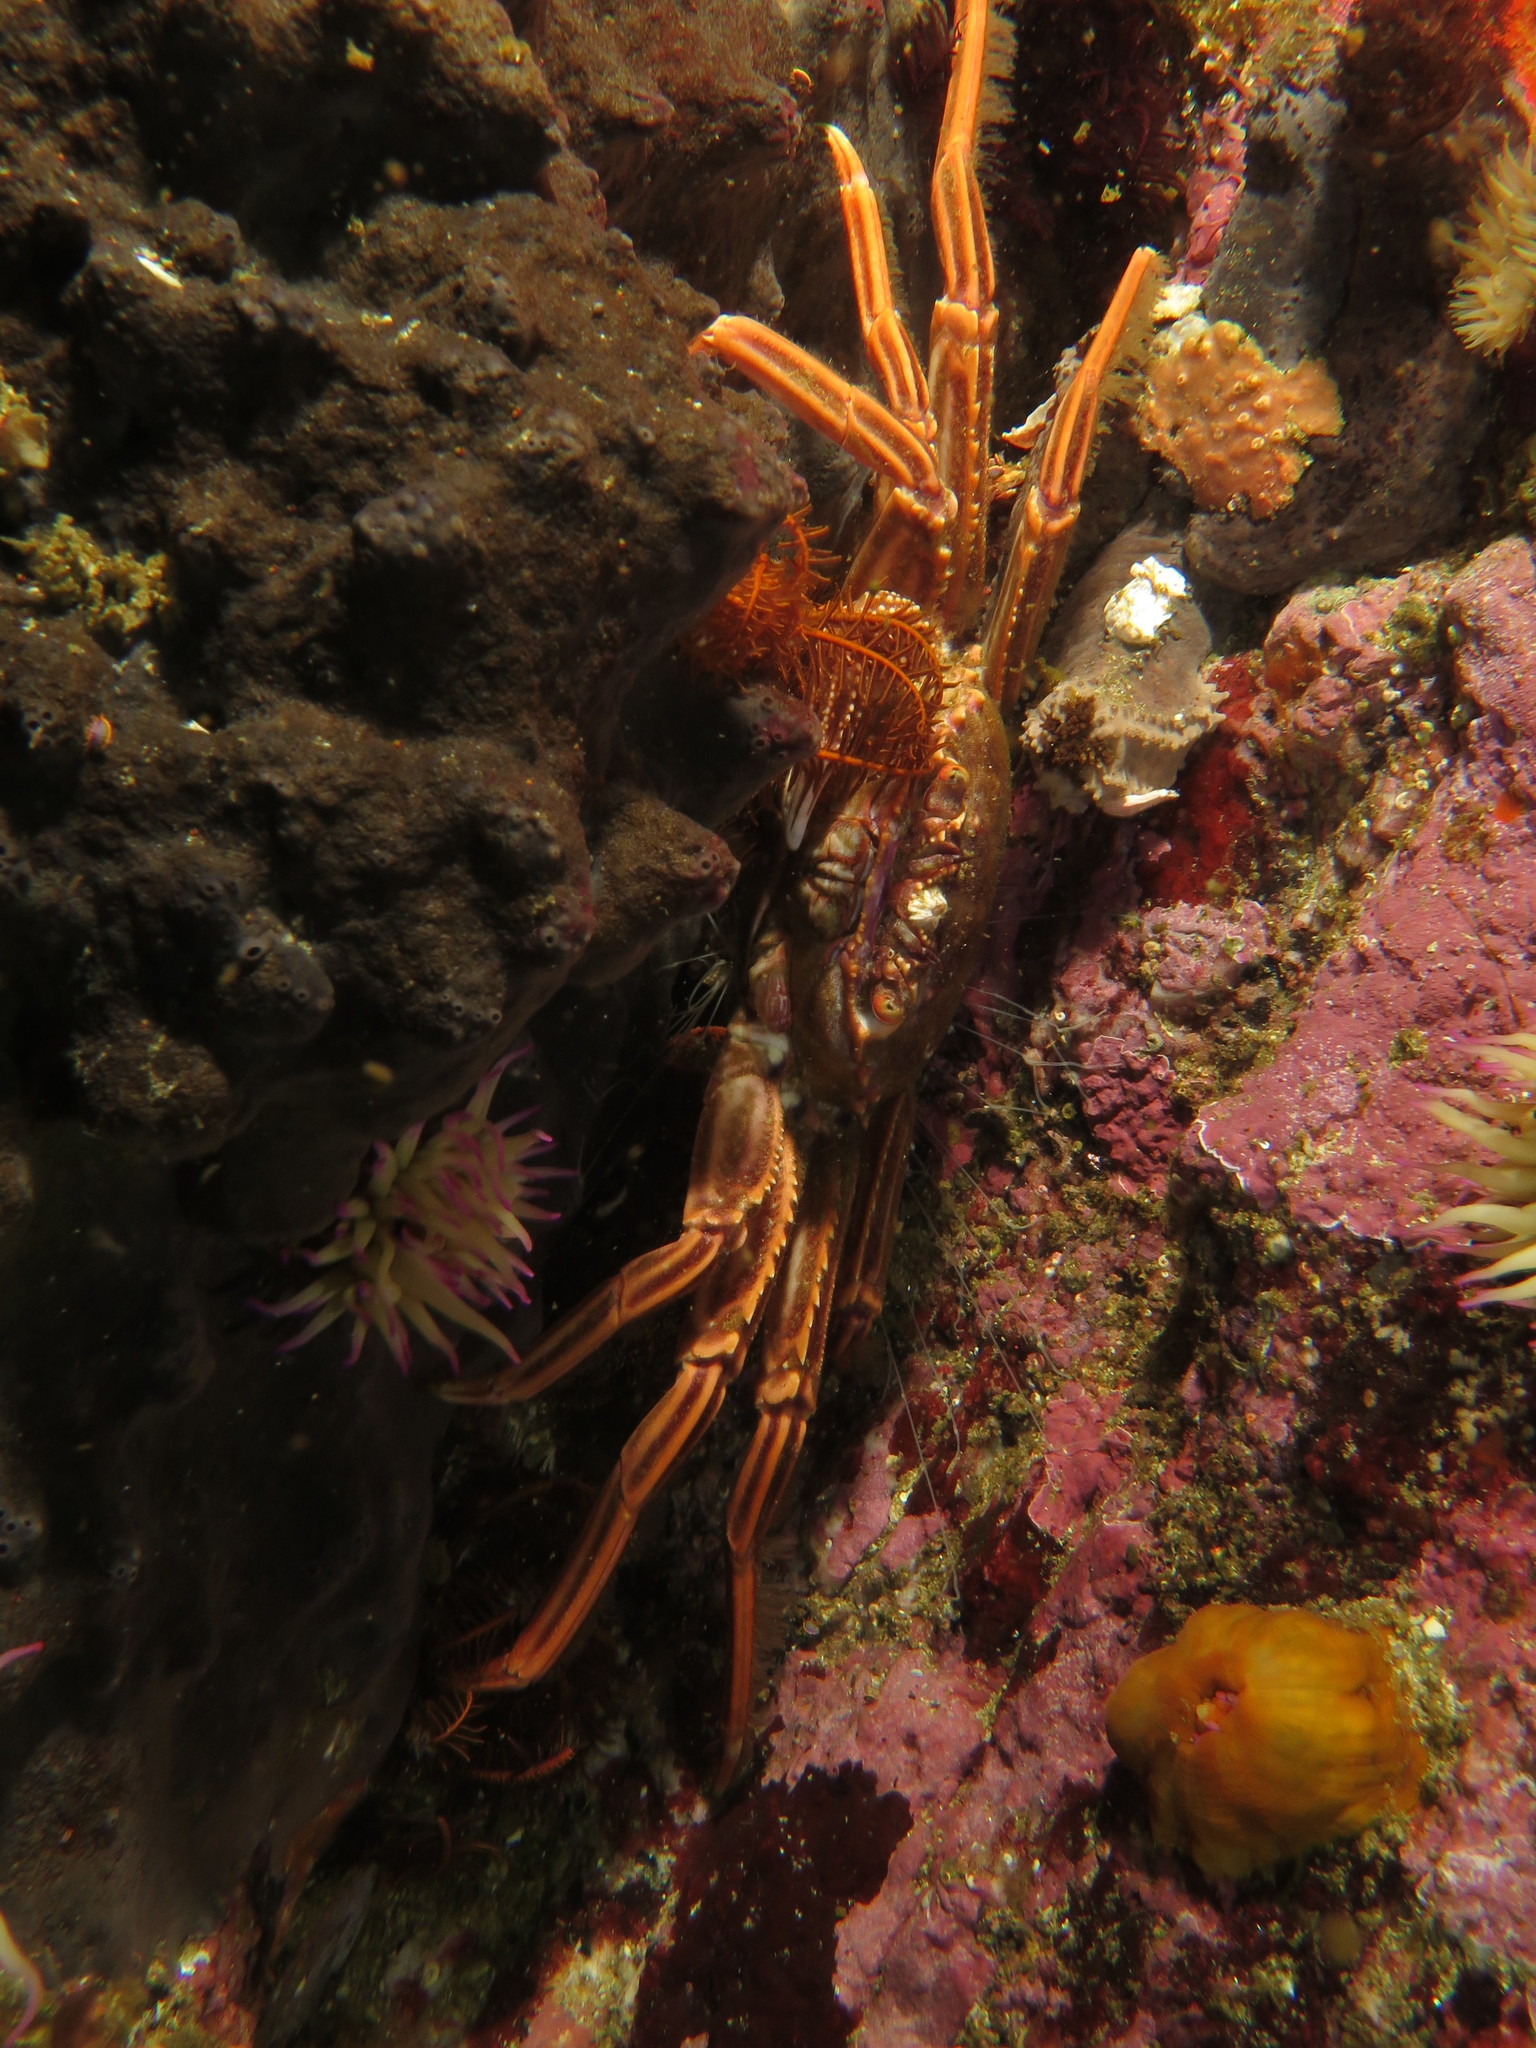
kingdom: Animalia
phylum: Arthropoda
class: Malacostraca
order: Decapoda
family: Plagusiidae
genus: Guinusia
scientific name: Guinusia chabrus
